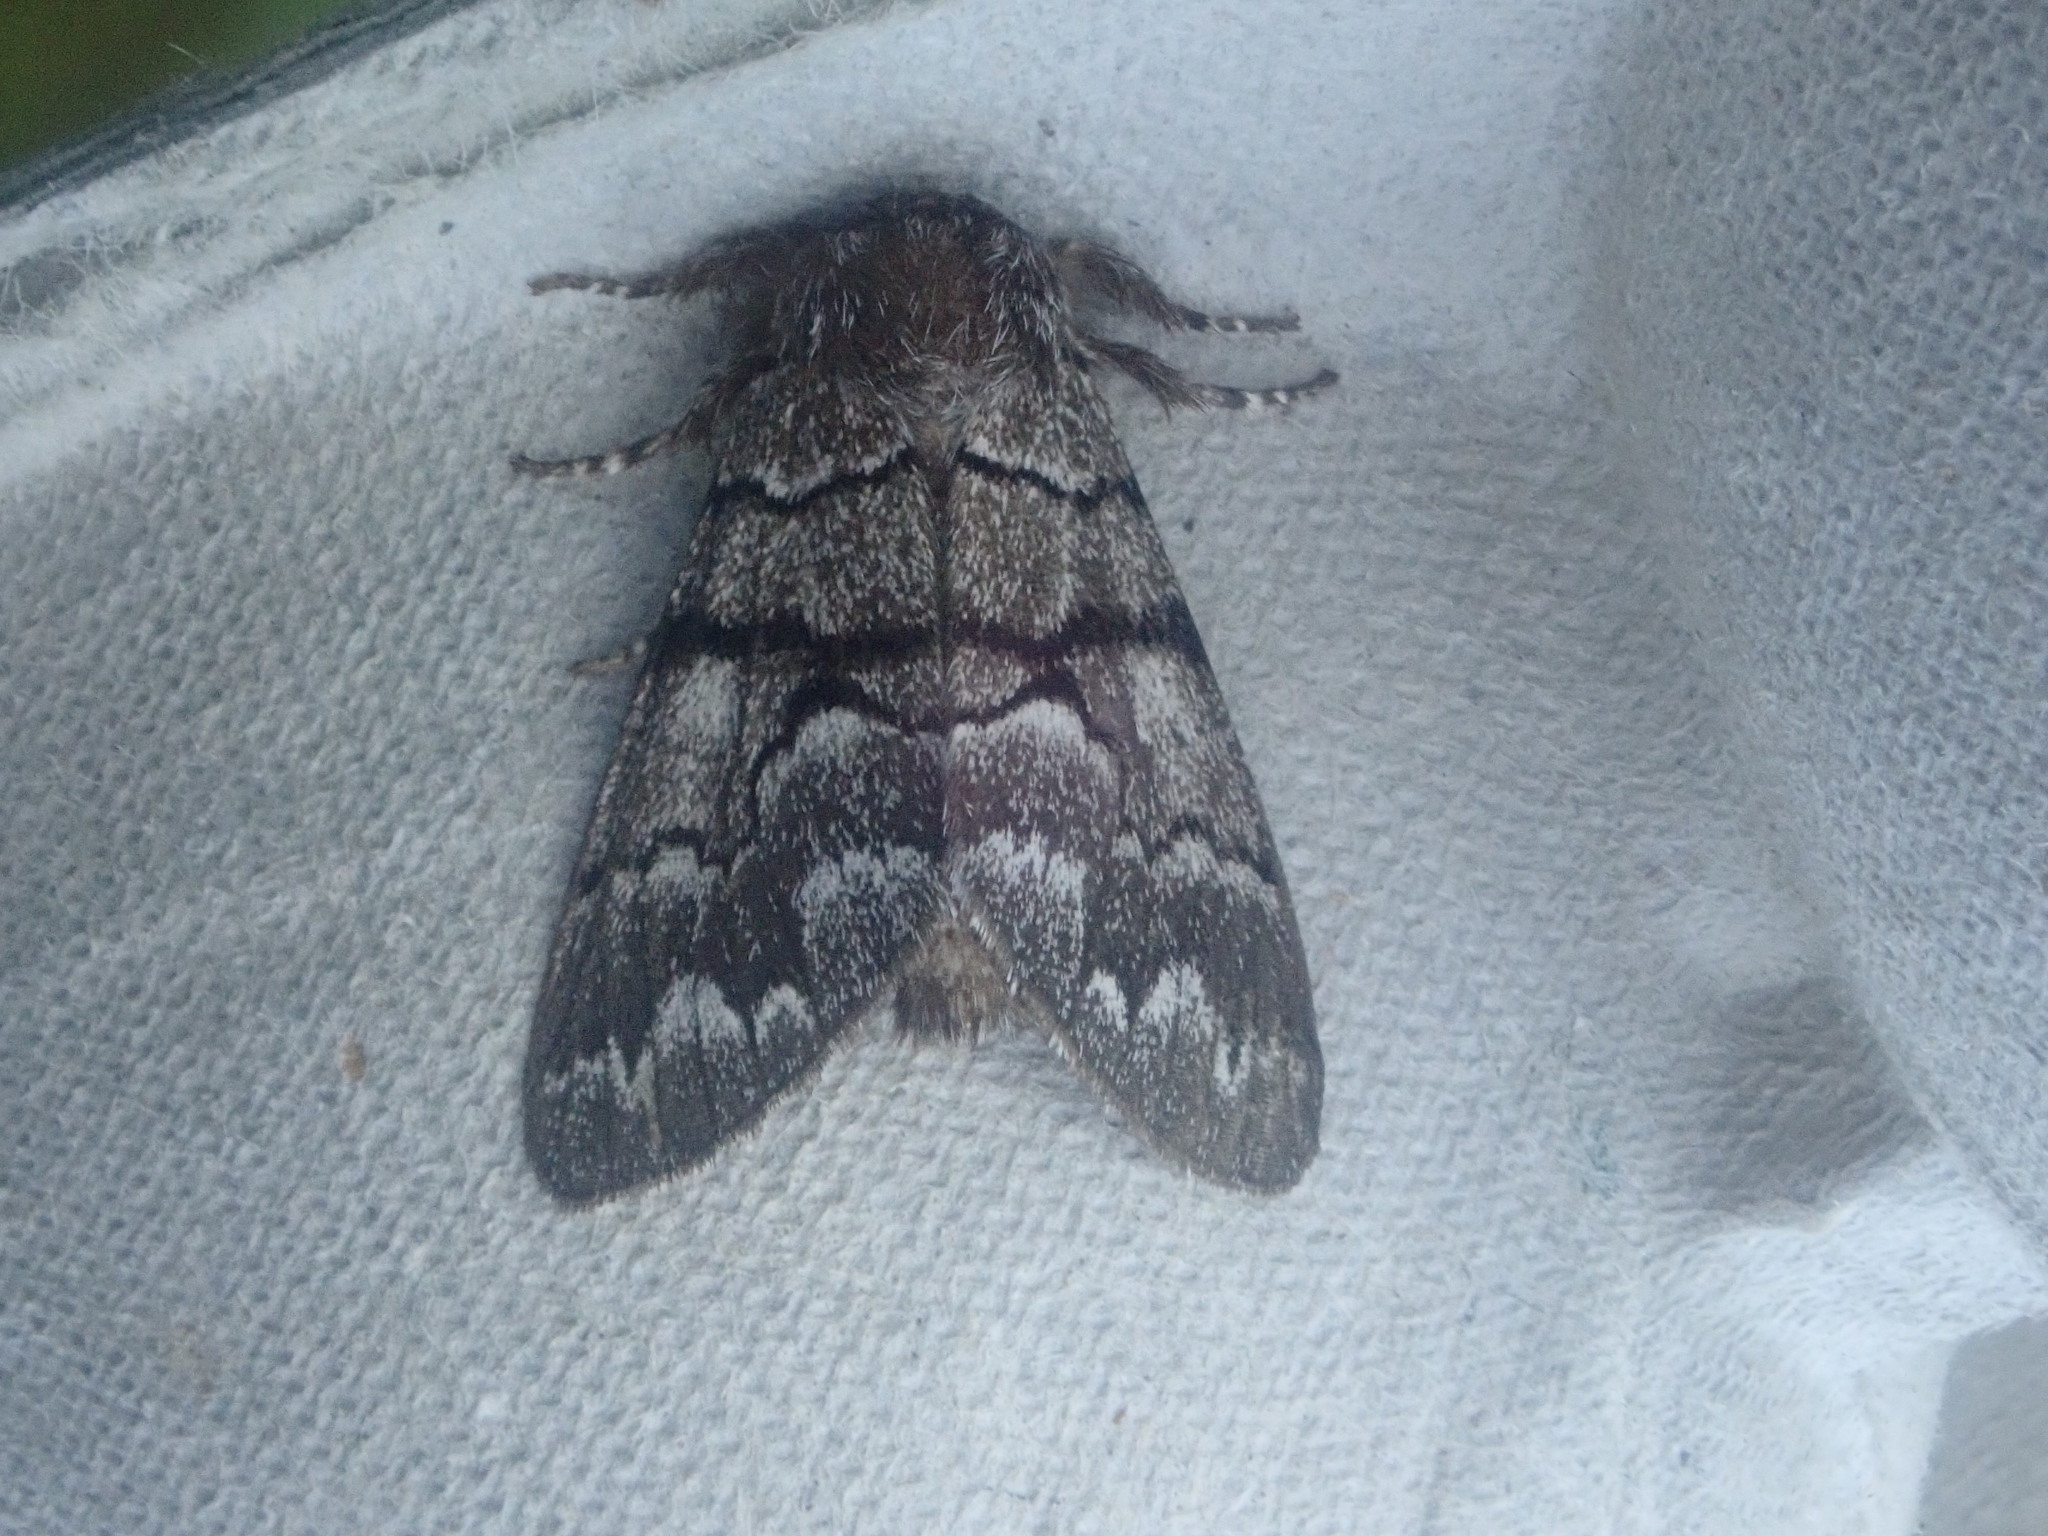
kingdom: Animalia
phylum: Arthropoda
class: Insecta
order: Lepidoptera
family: Noctuidae
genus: Panthea
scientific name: Panthea furcilla
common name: Eastern panthea moth
